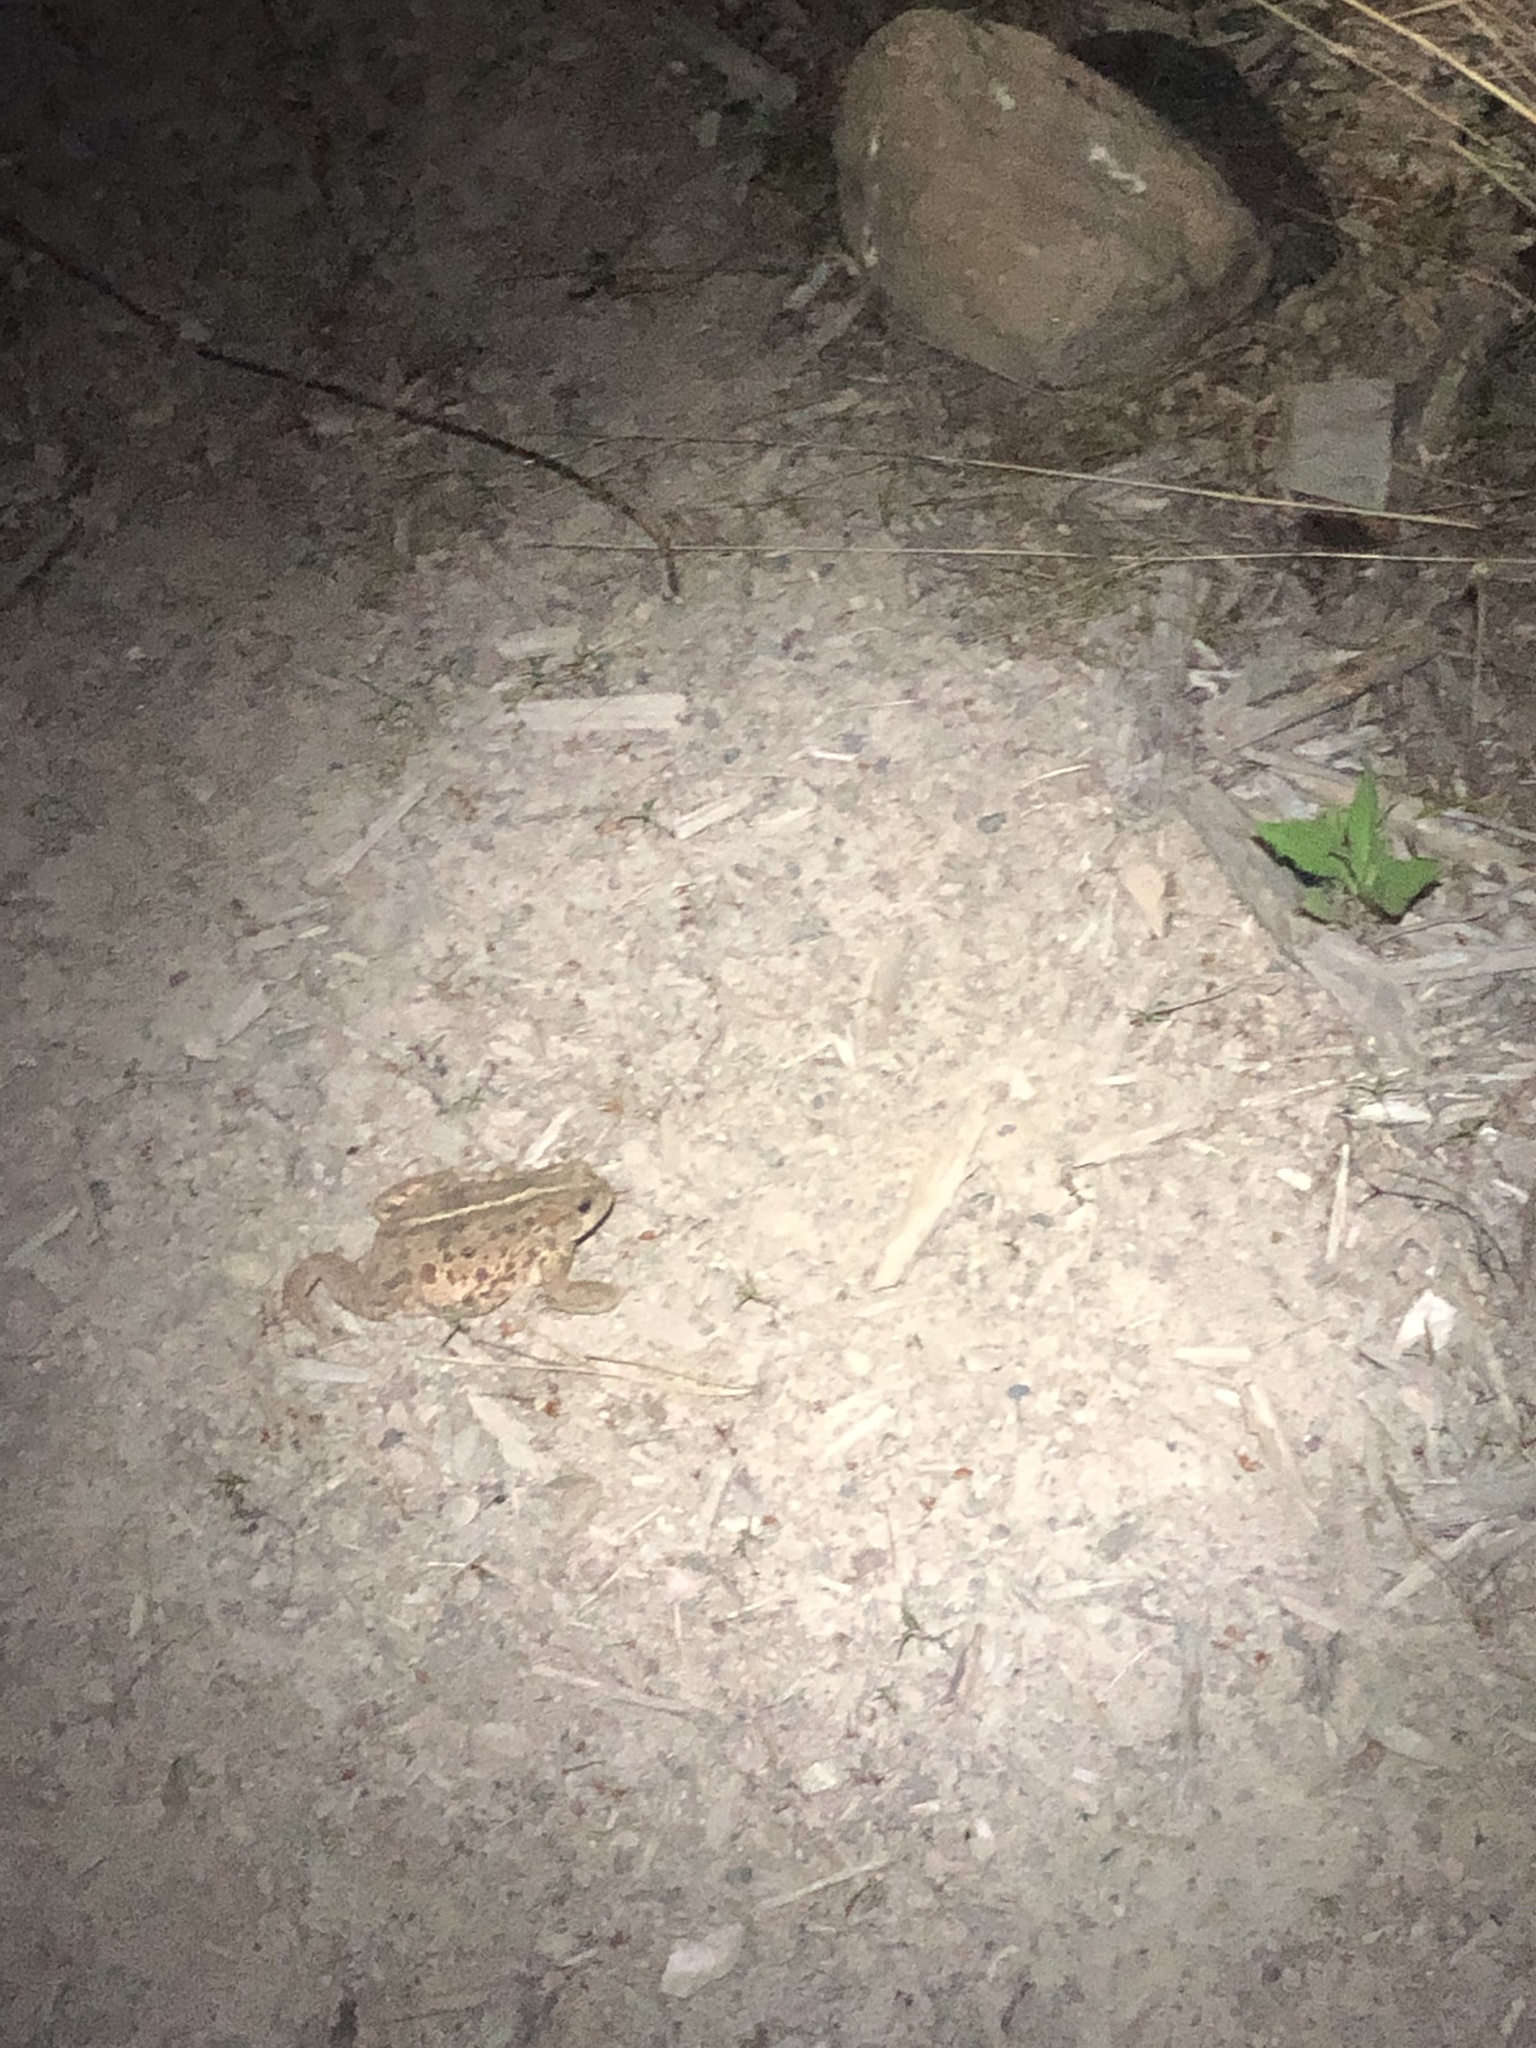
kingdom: Animalia
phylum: Chordata
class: Amphibia
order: Anura
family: Bufonidae
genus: Anaxyrus
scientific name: Anaxyrus boreas
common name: Western toad
